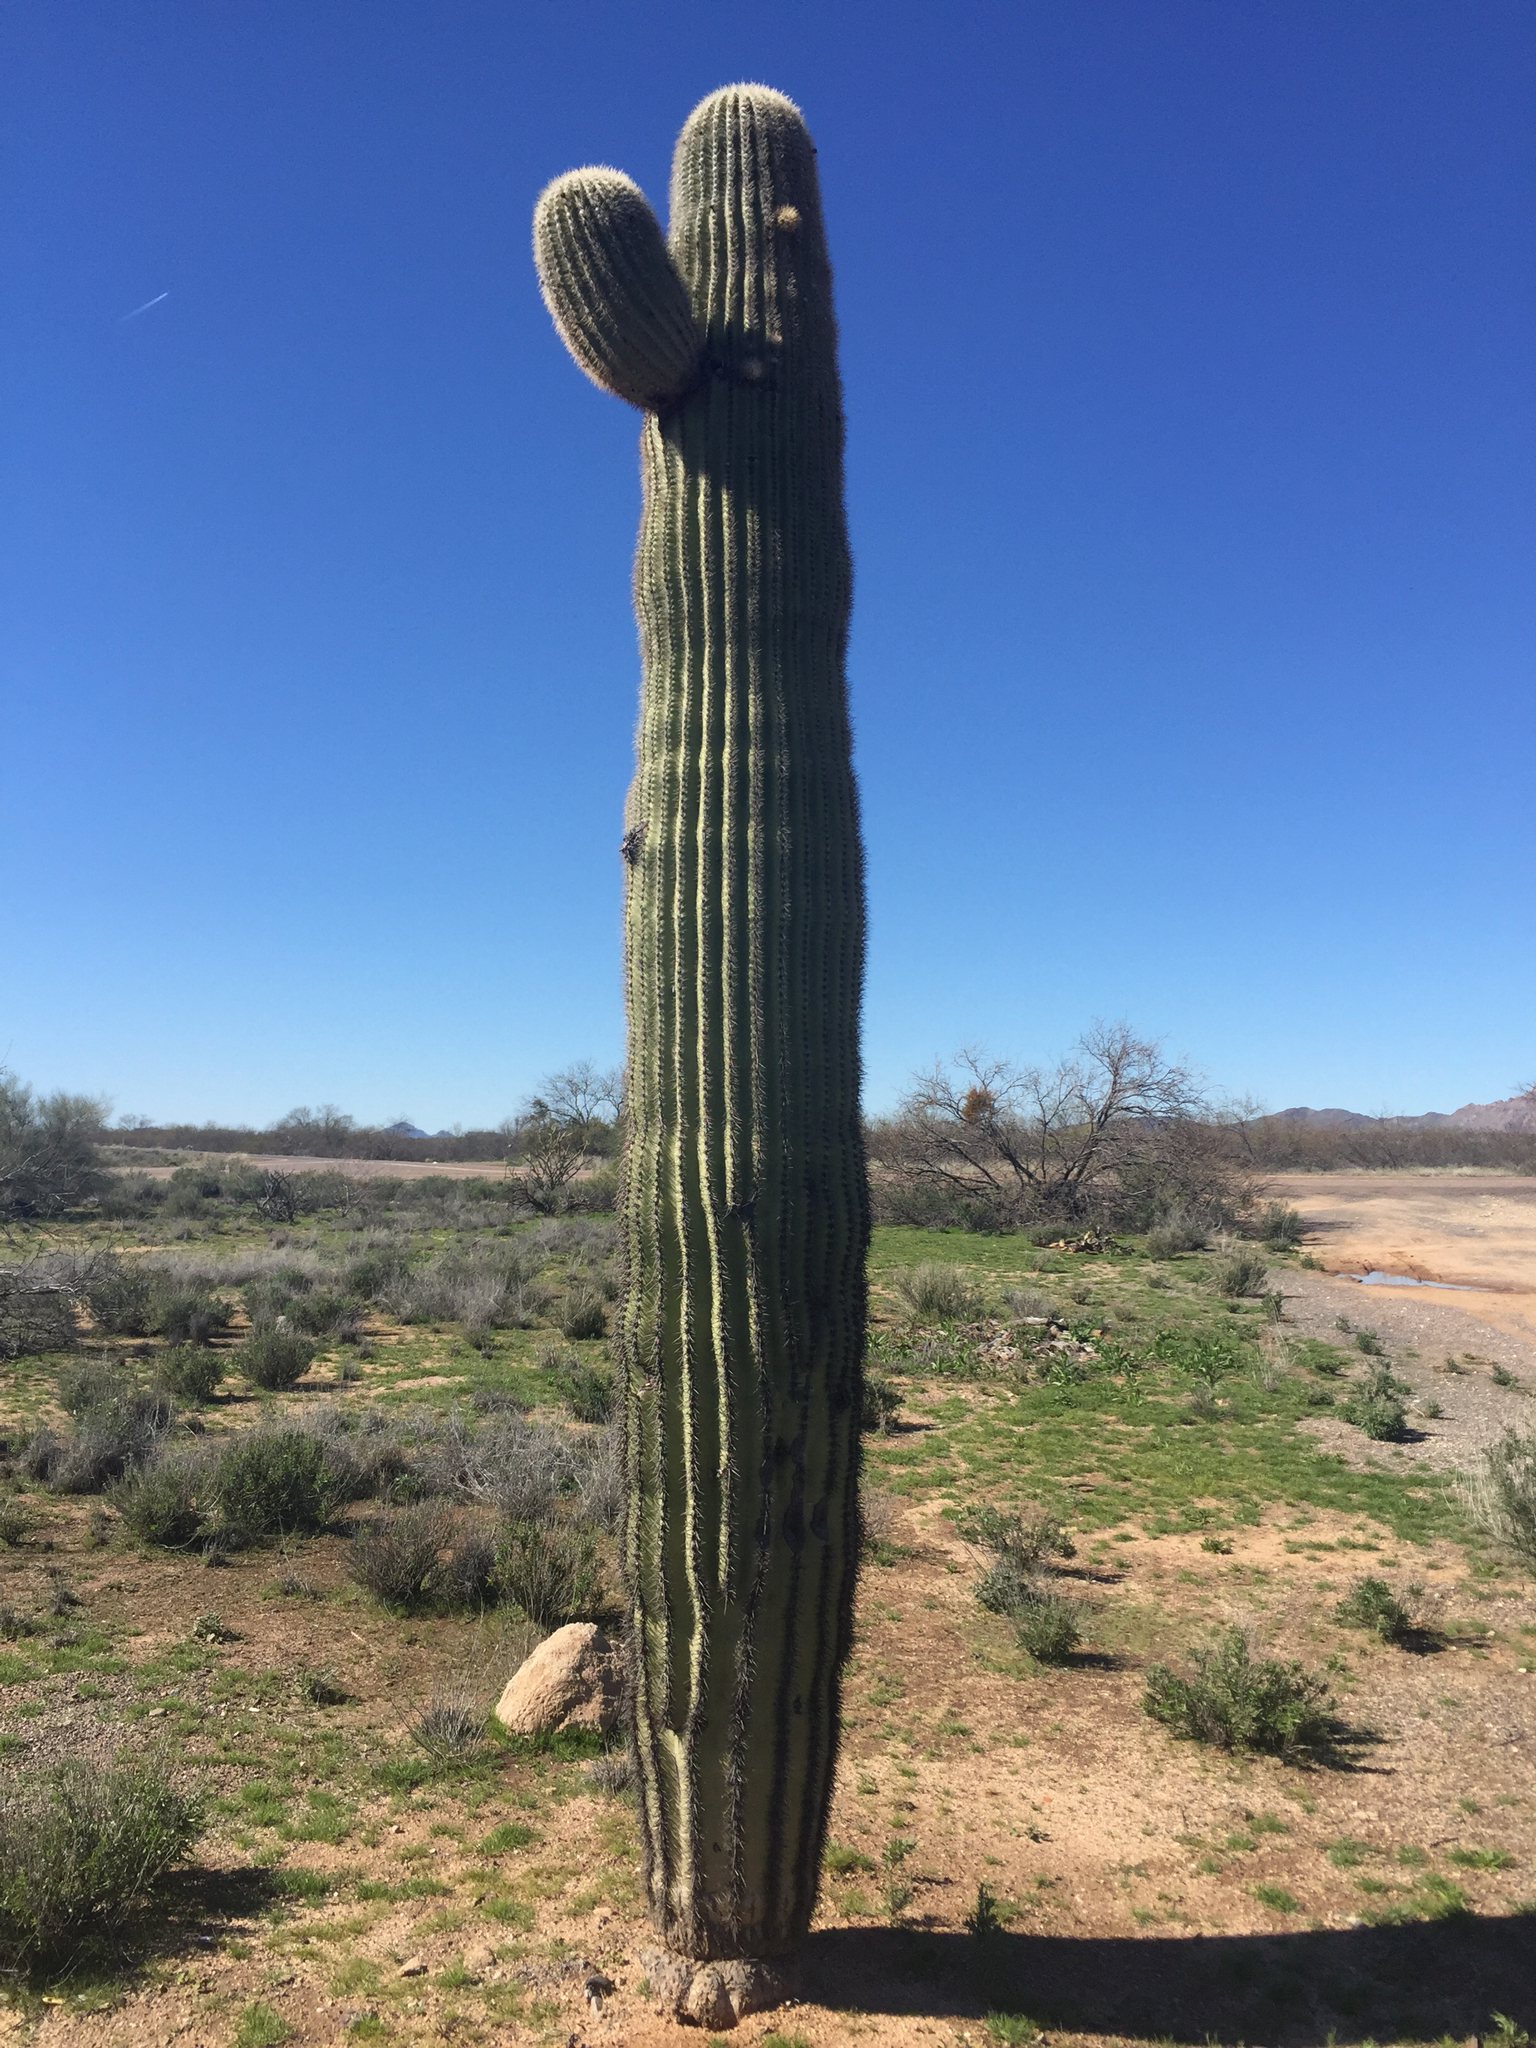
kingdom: Plantae
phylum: Tracheophyta
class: Magnoliopsida
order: Caryophyllales
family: Cactaceae
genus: Carnegiea
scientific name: Carnegiea gigantea
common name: Saguaro
